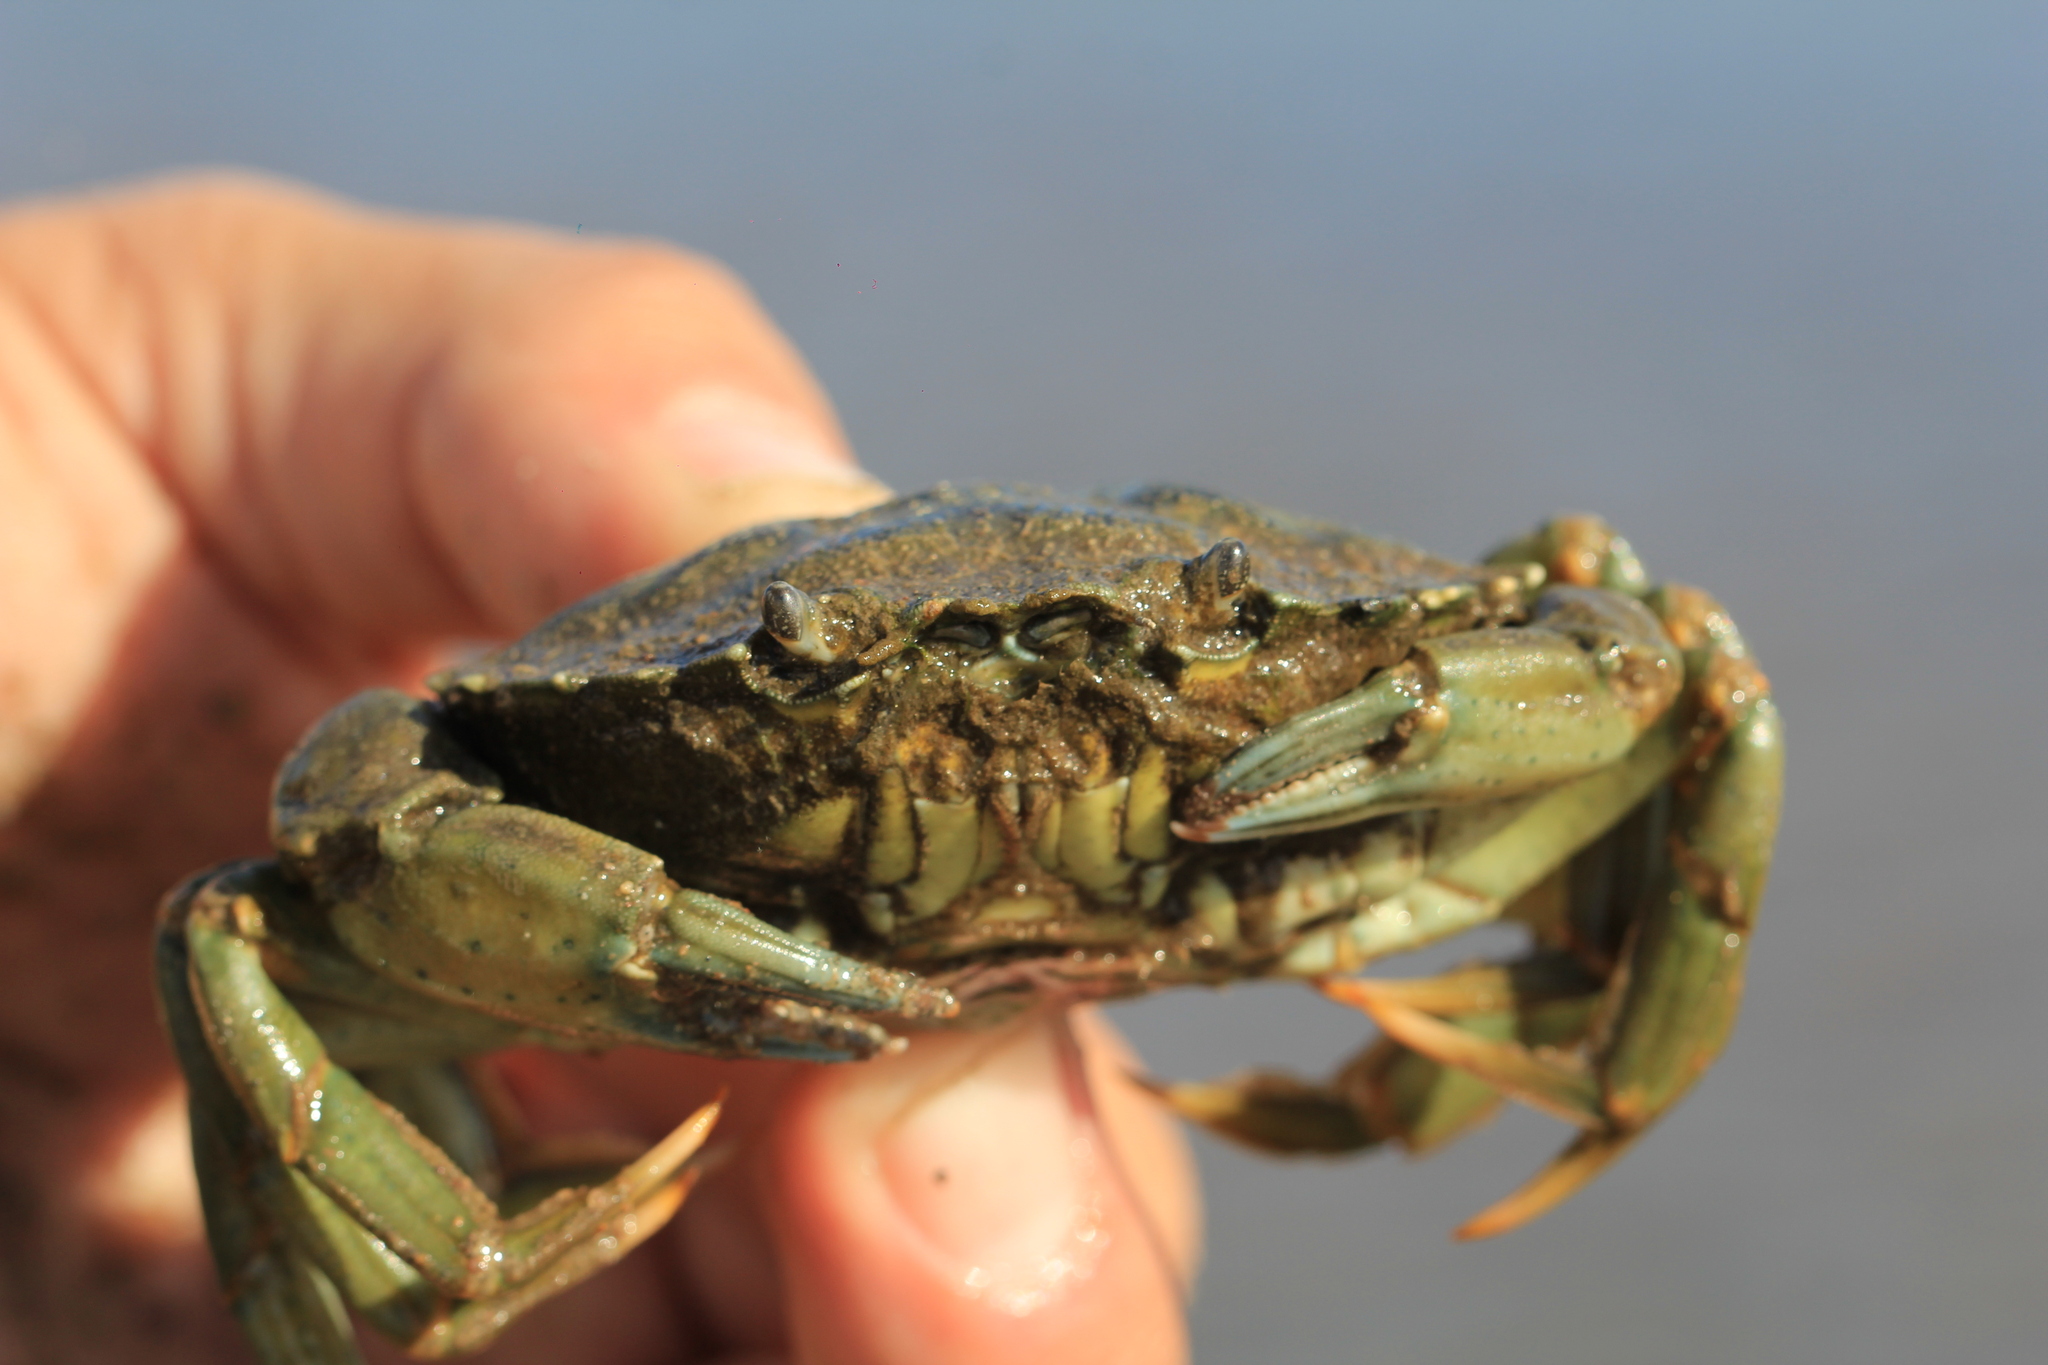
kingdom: Animalia
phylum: Arthropoda
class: Malacostraca
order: Decapoda
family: Carcinidae
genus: Carcinus
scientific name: Carcinus maenas
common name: European green crab
